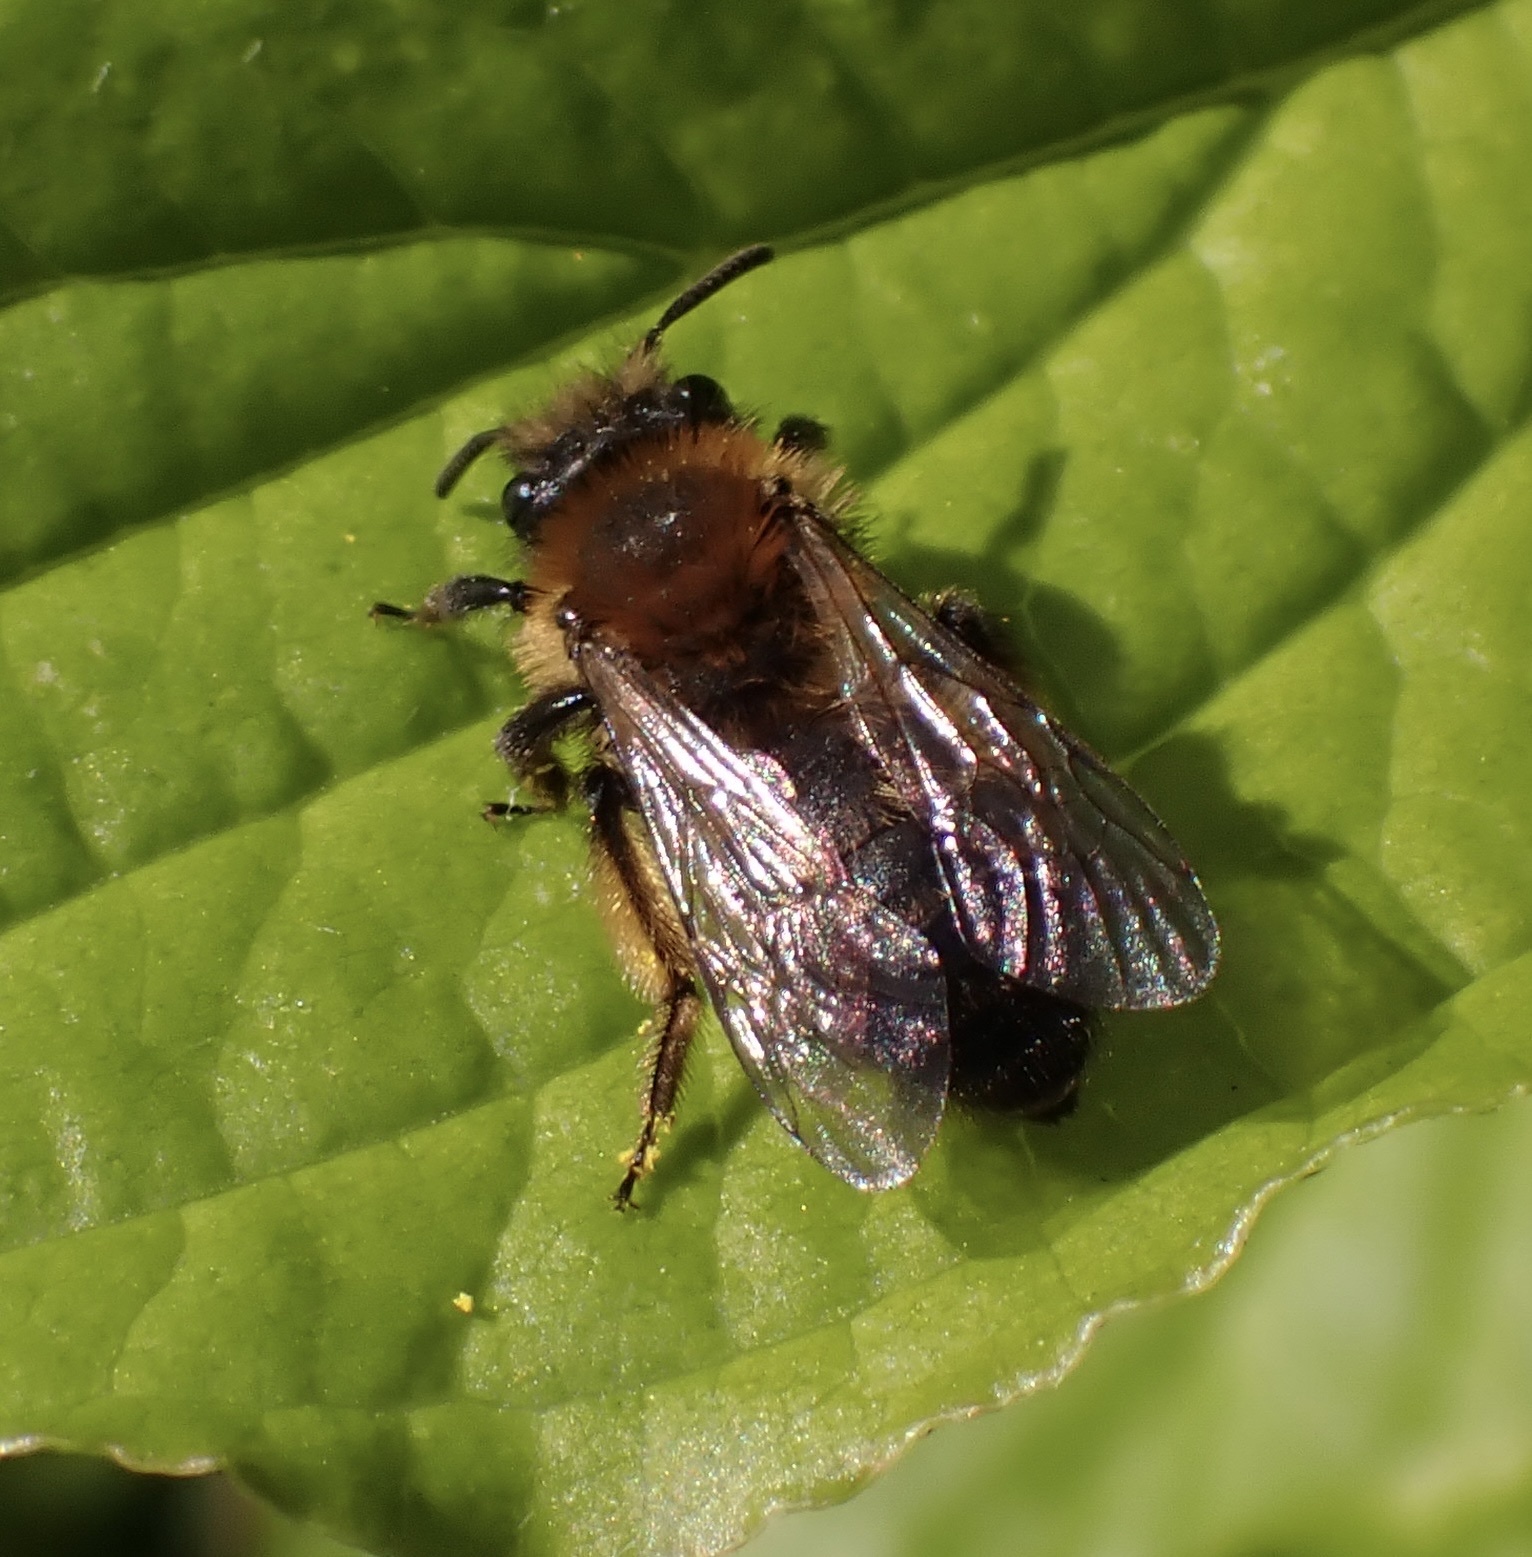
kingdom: Animalia
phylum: Arthropoda
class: Insecta
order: Hymenoptera
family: Andrenidae
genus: Andrena
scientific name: Andrena bicolor
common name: Gwynne's mining bee
